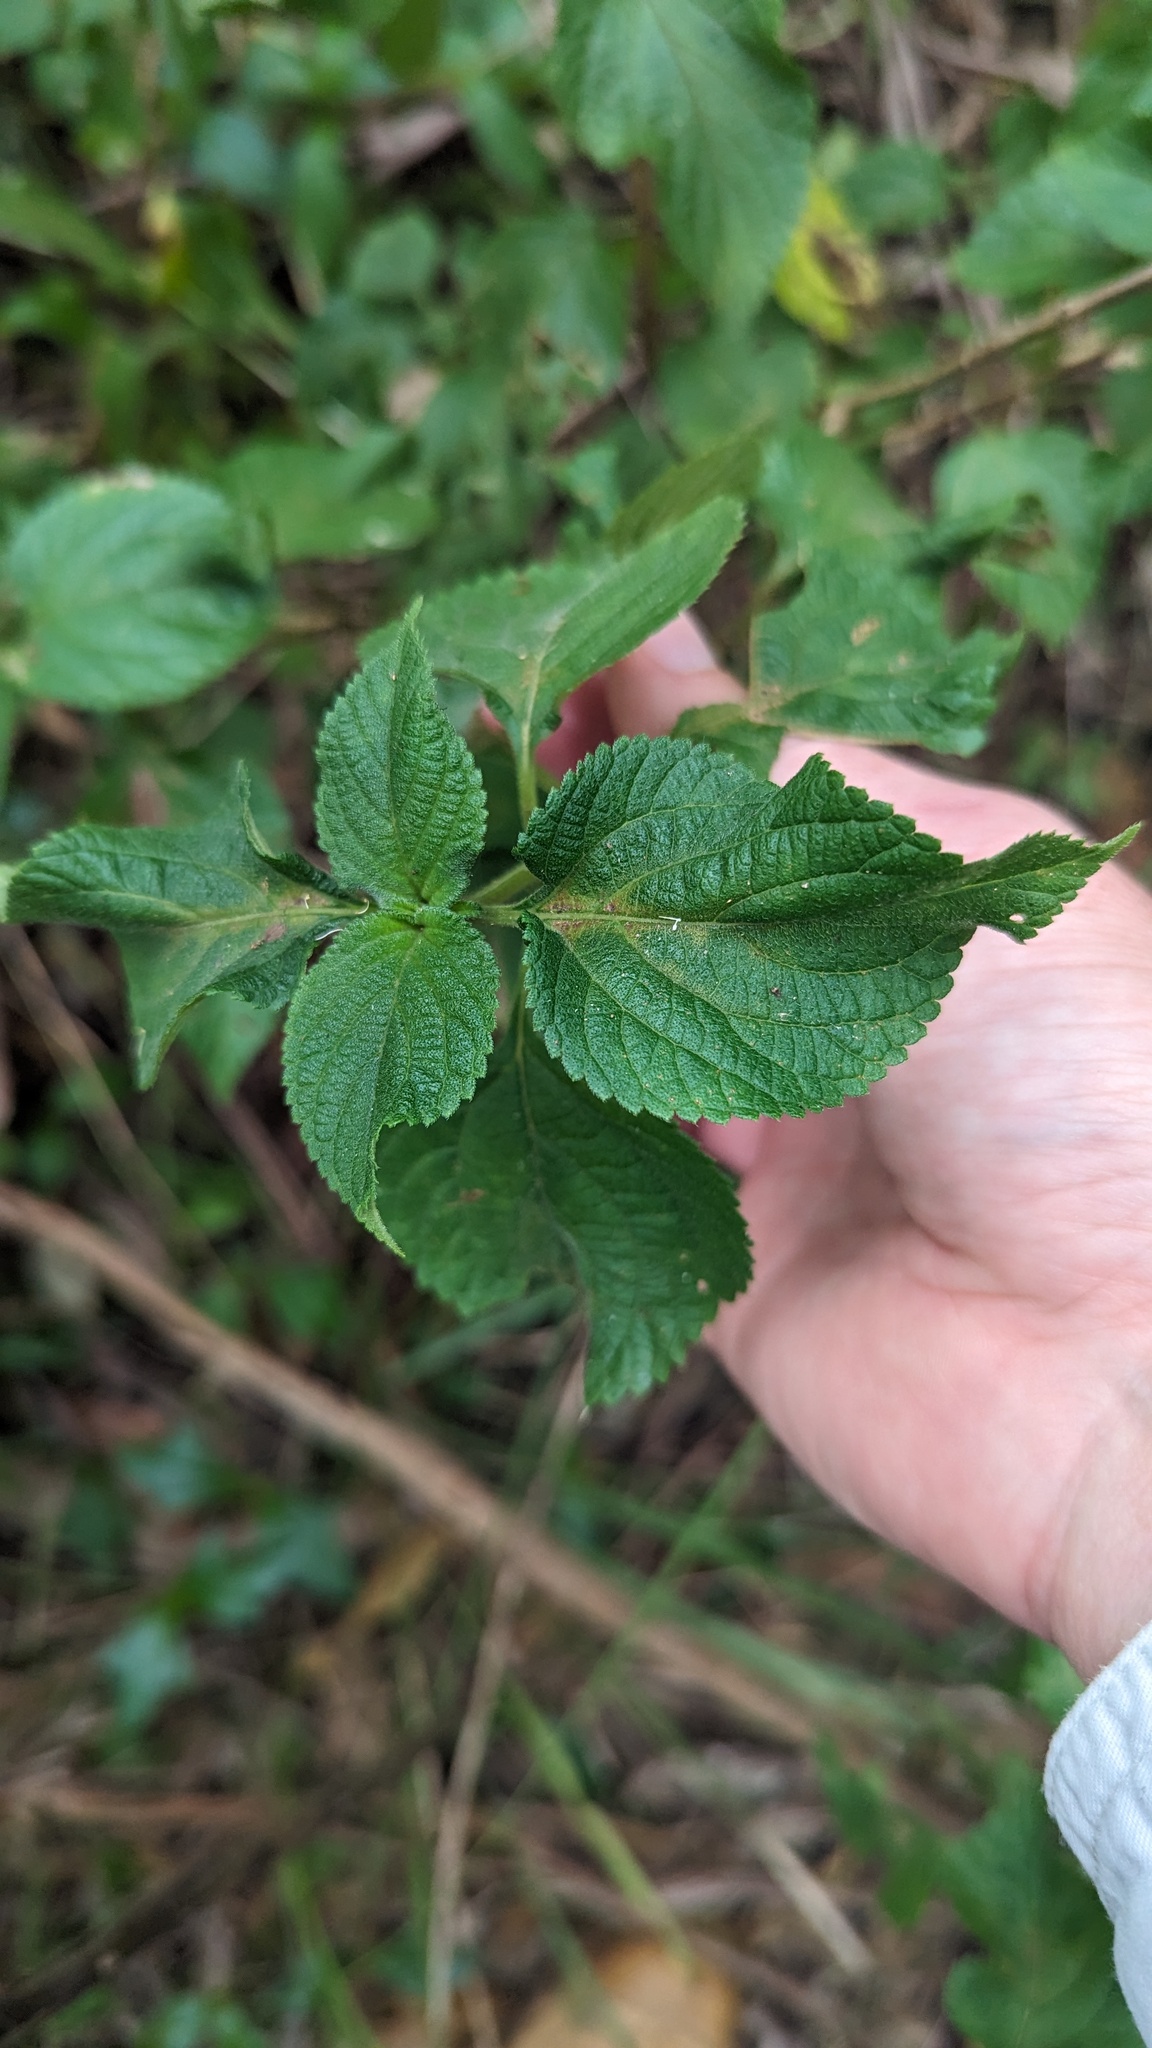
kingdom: Plantae
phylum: Tracheophyta
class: Magnoliopsida
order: Lamiales
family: Verbenaceae
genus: Lantana
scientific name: Lantana camara
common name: Lantana
